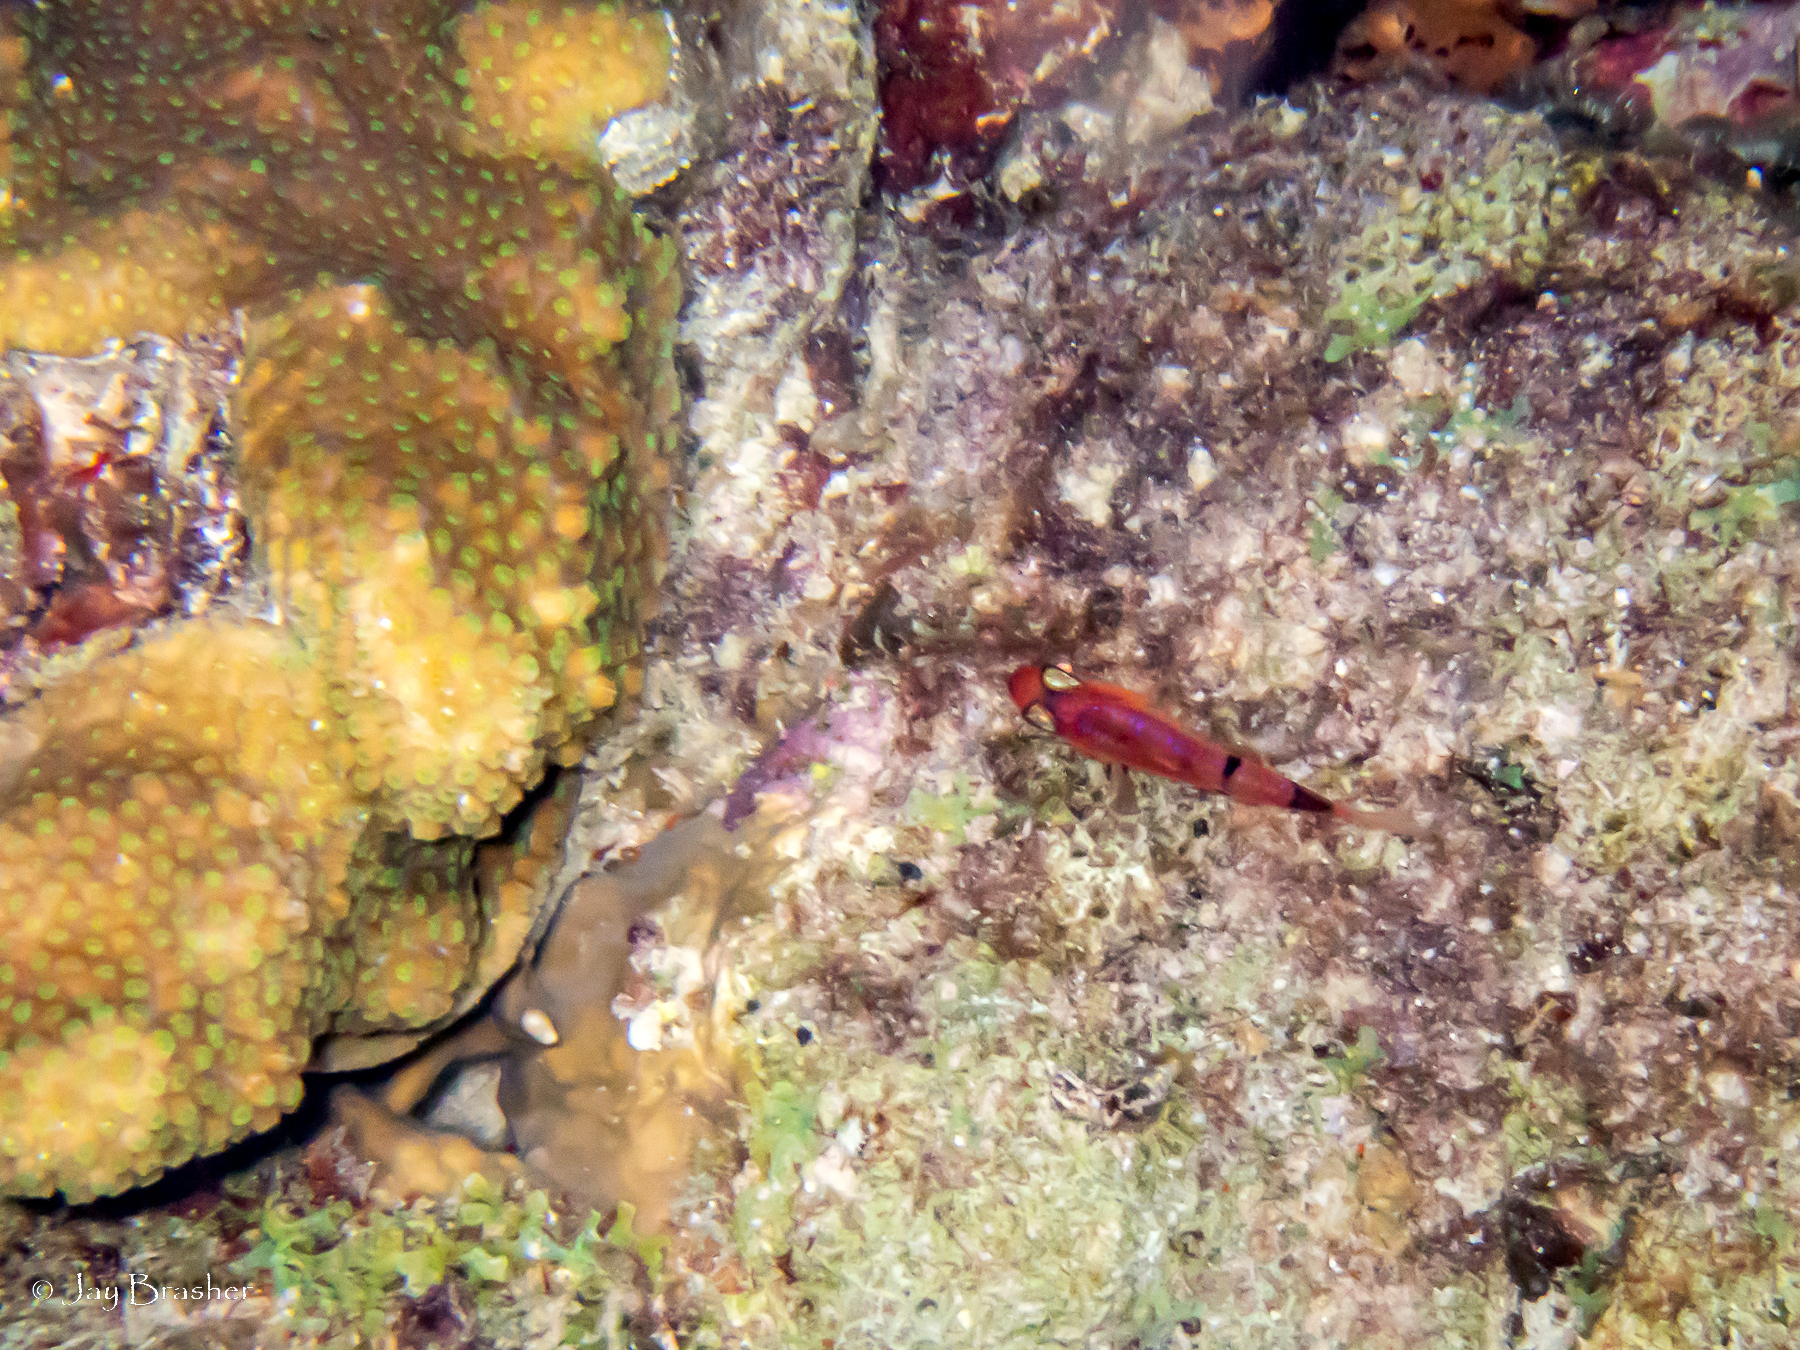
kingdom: Animalia
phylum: Chordata
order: Perciformes
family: Apogonidae
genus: Apogon
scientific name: Apogon townsendi
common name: Belted cardinalfish
